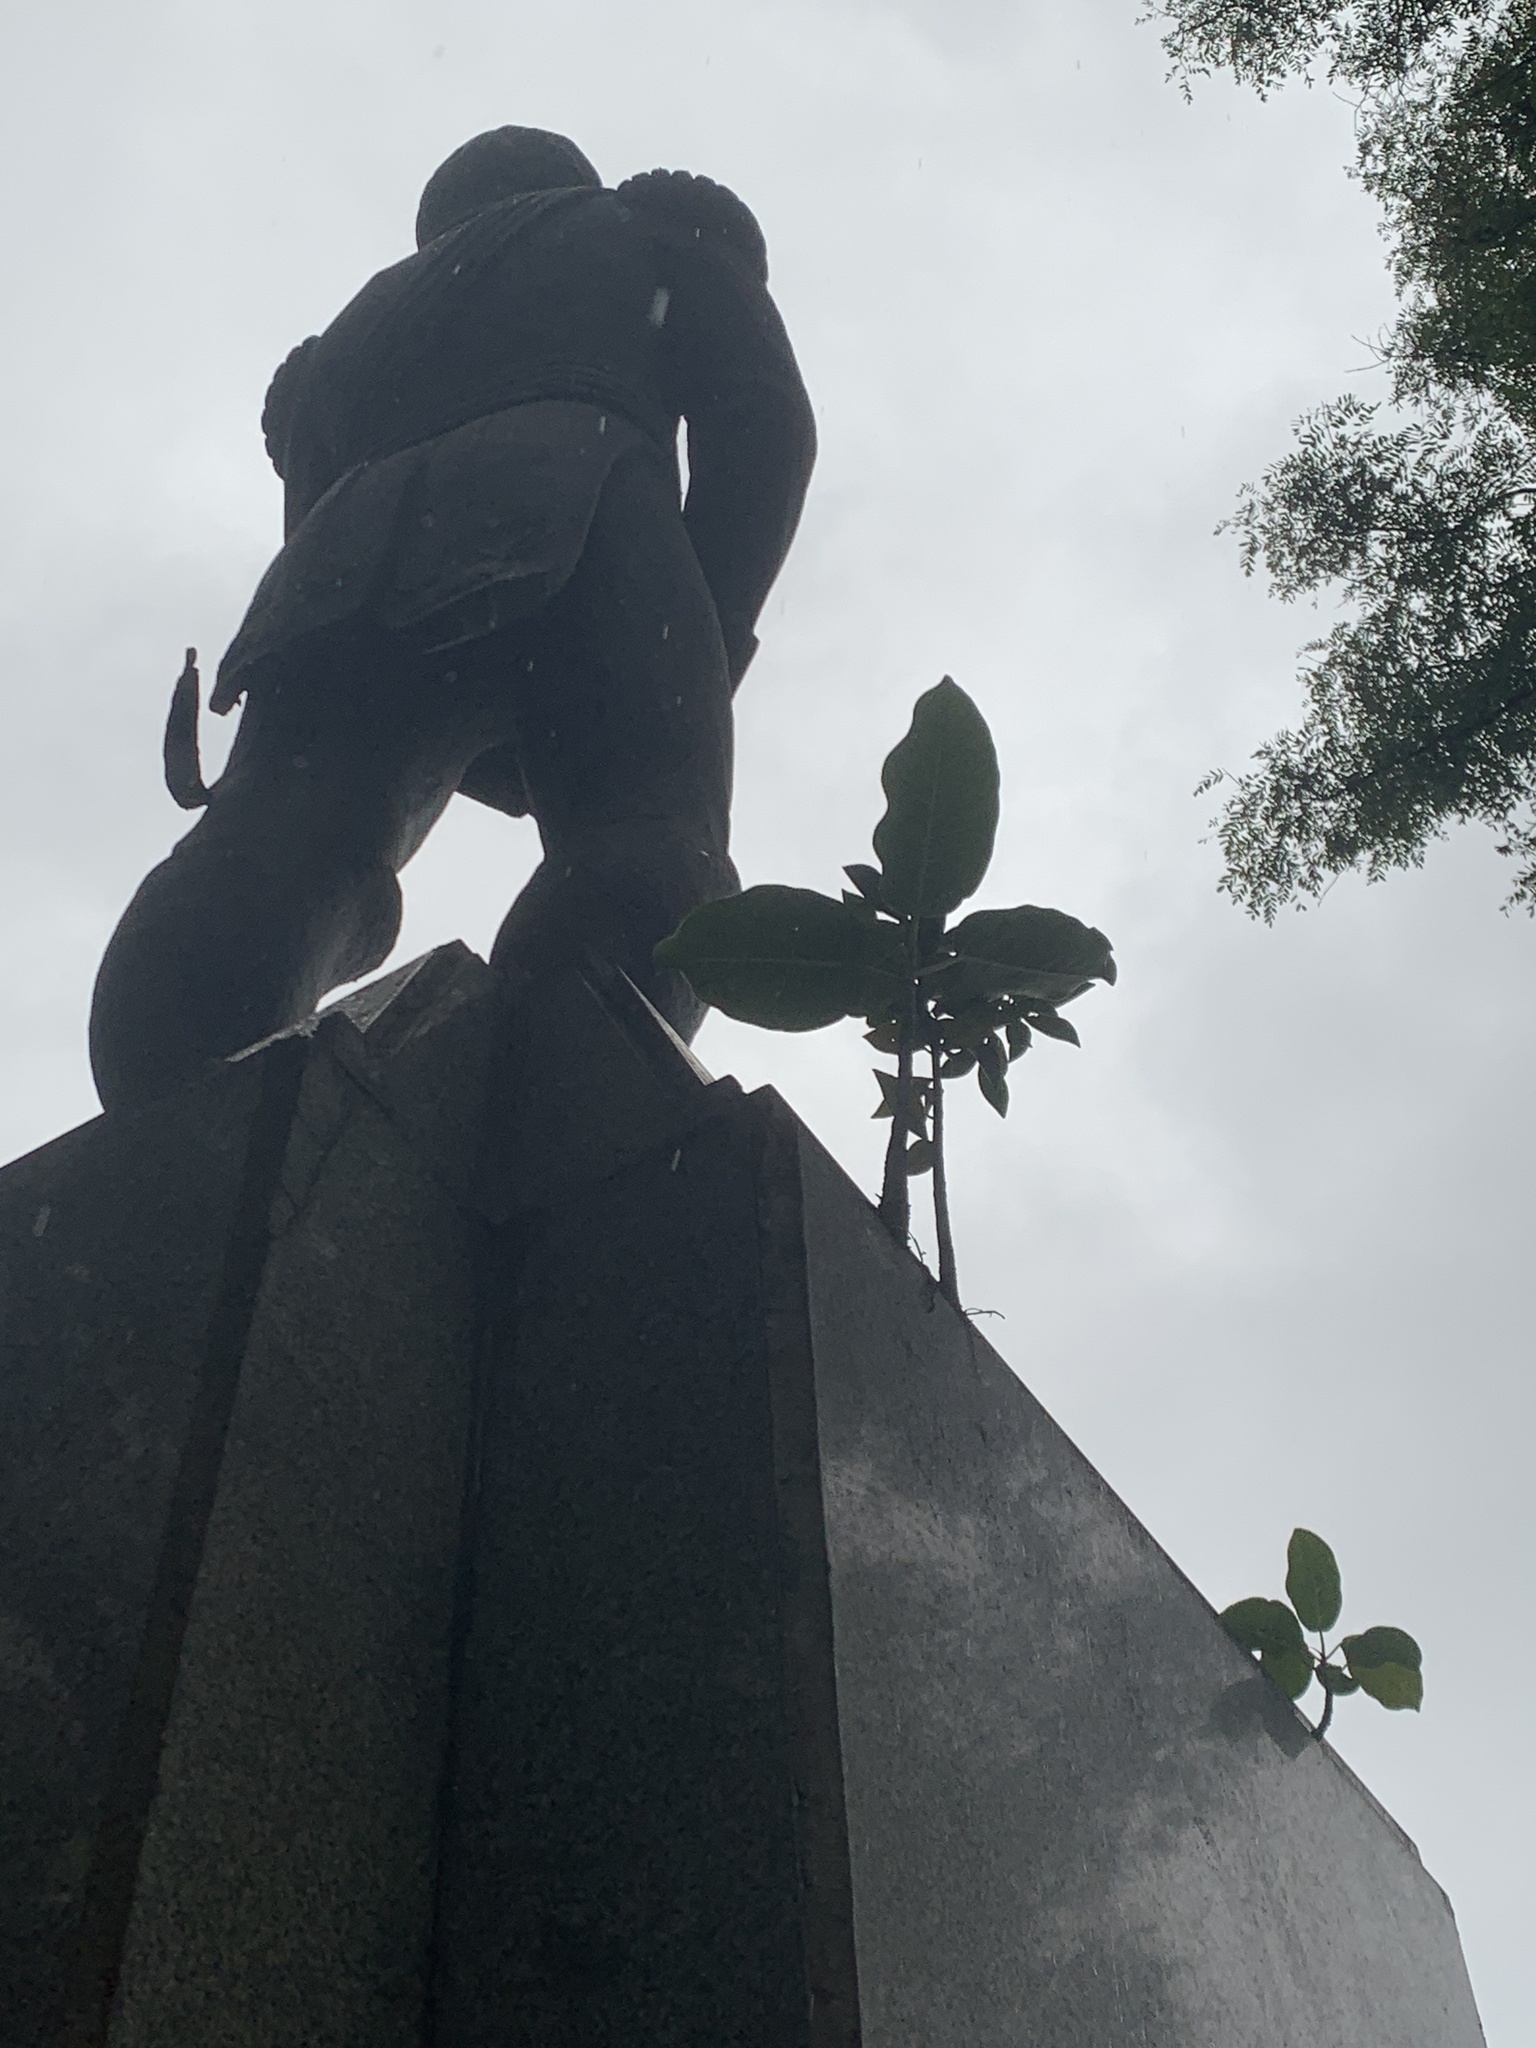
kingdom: Plantae
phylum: Tracheophyta
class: Magnoliopsida
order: Rosales
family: Moraceae
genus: Ficus
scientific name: Ficus luschnathiana
